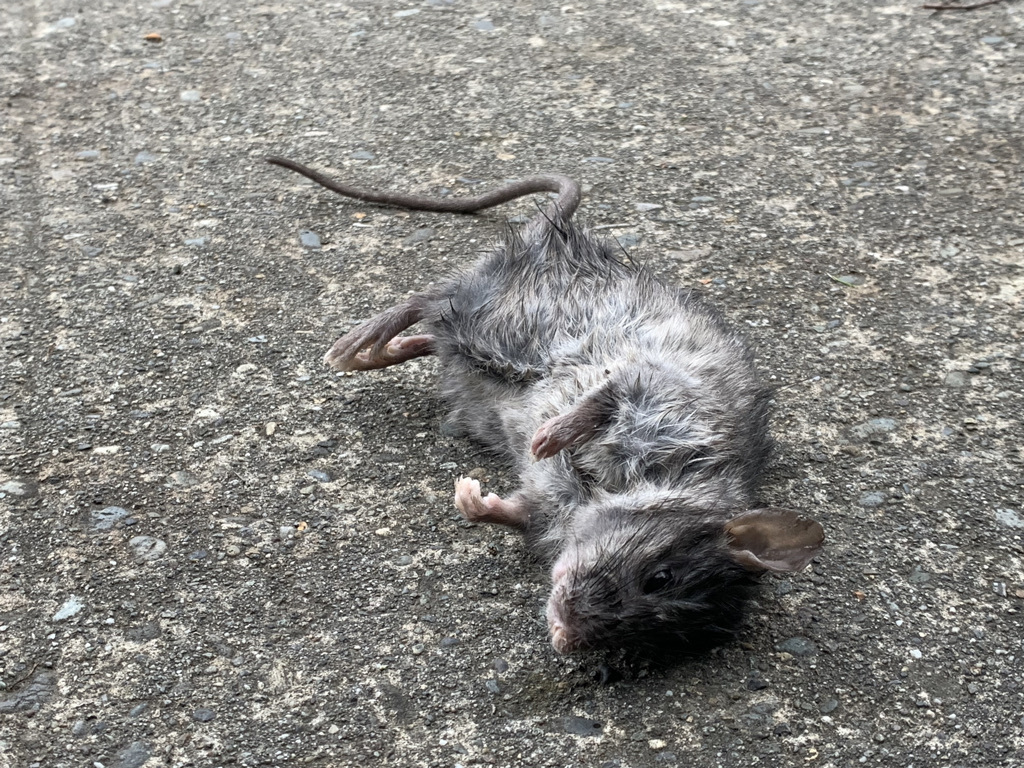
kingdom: Animalia
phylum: Chordata
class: Mammalia
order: Rodentia
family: Muridae
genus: Rattus
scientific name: Rattus norvegicus
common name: Brown rat
